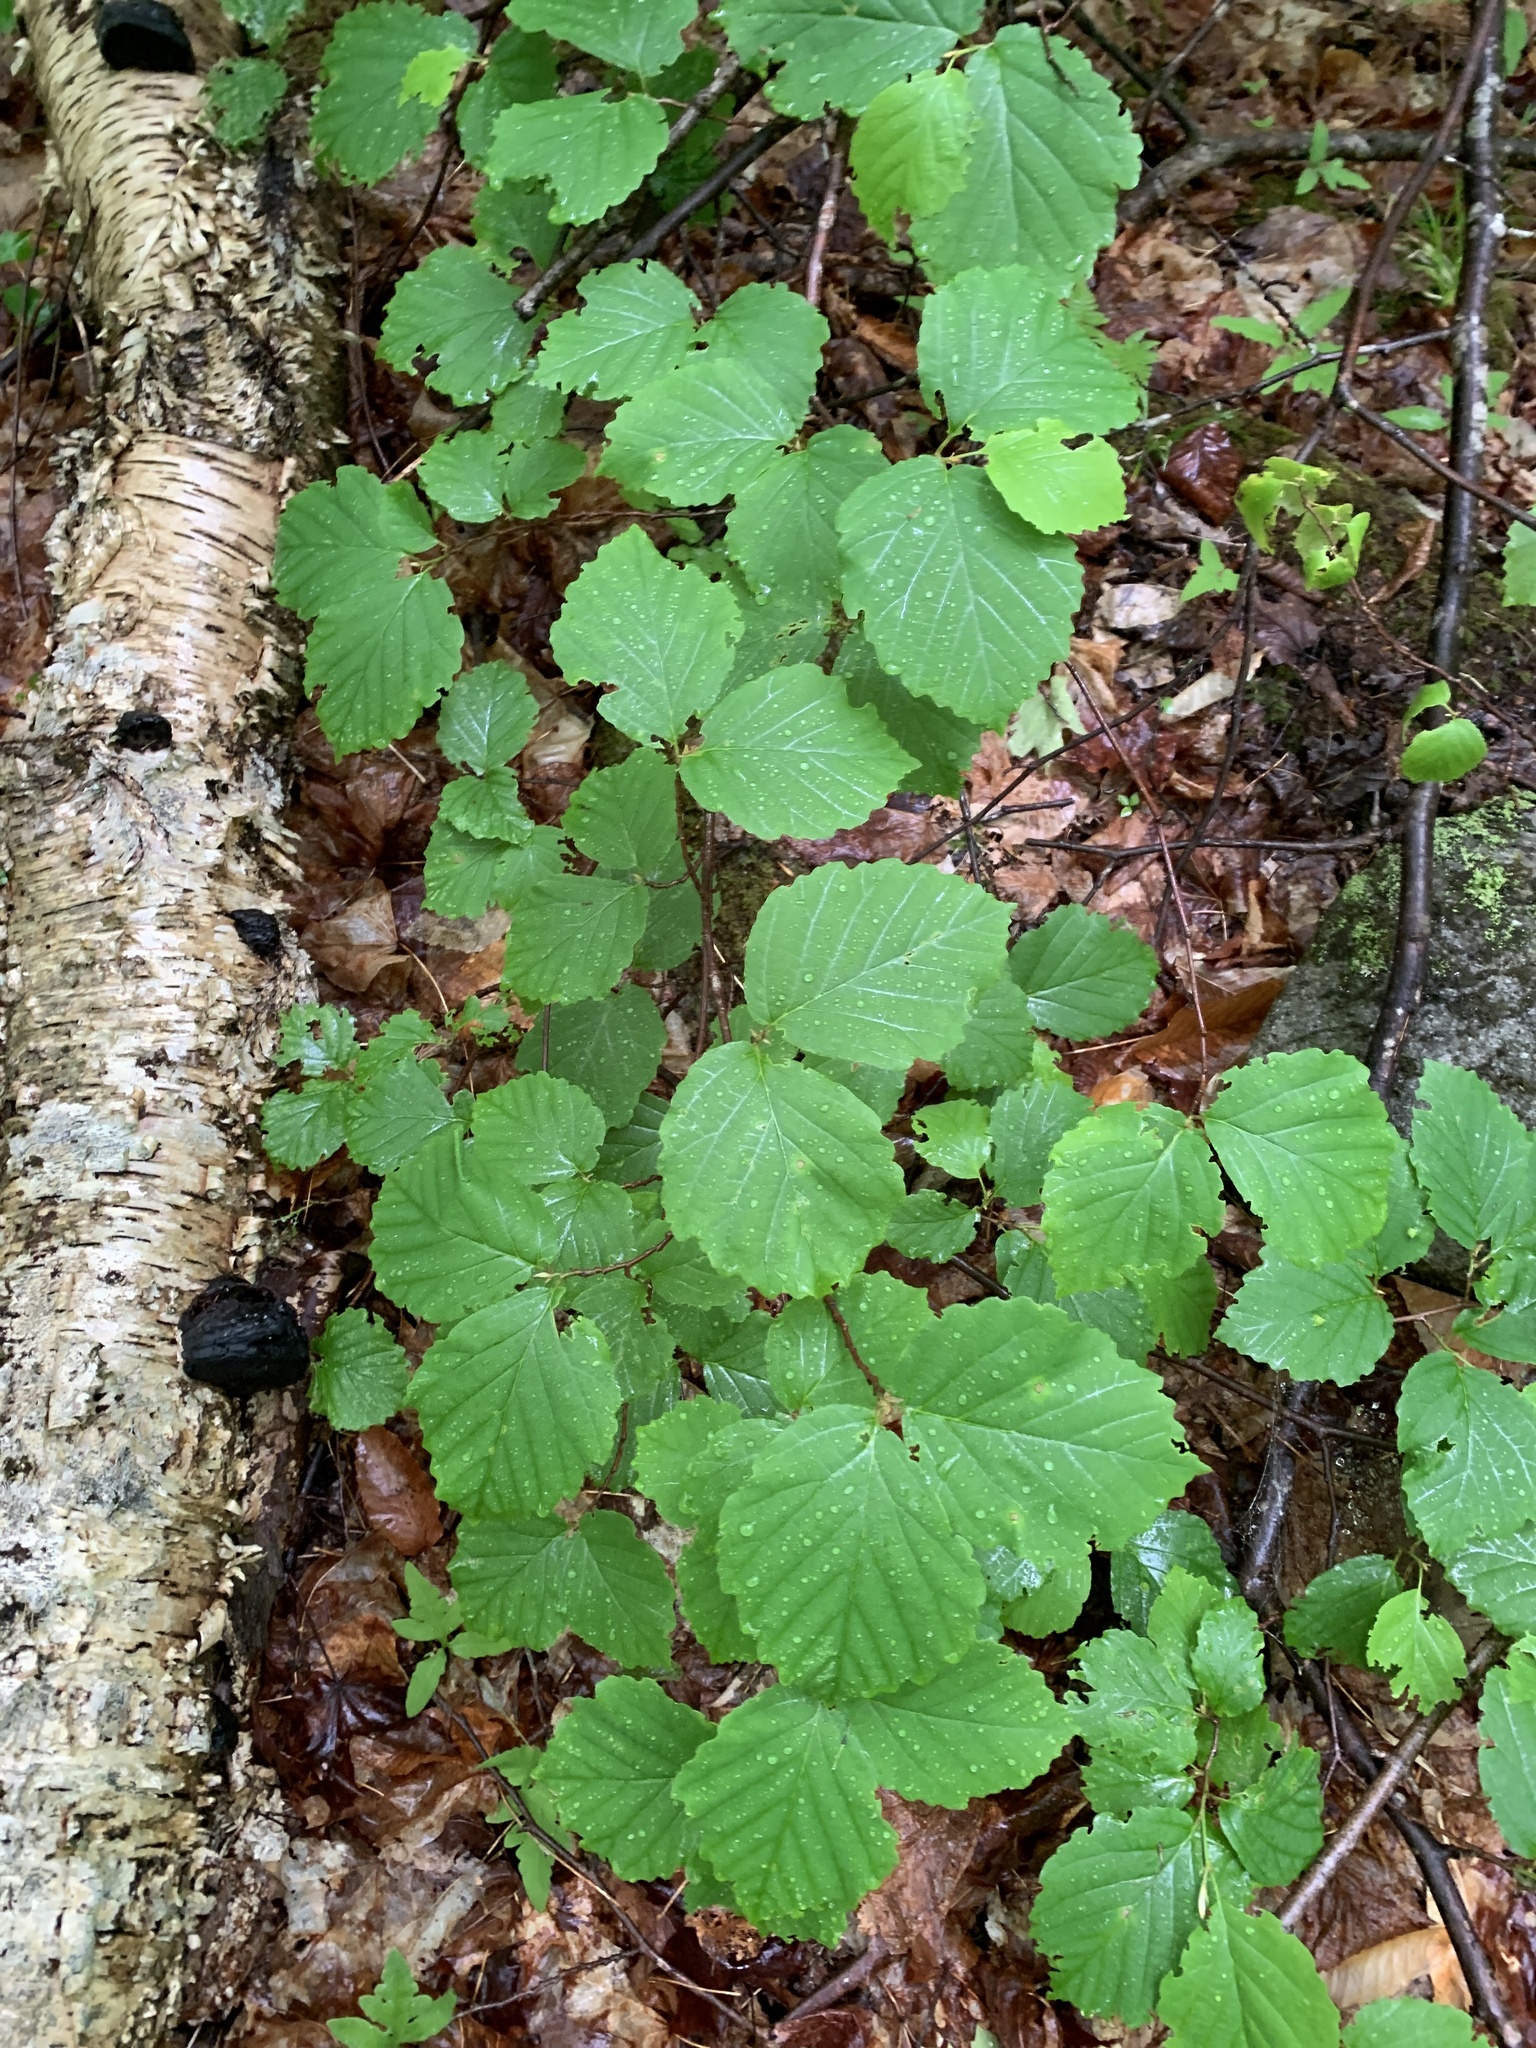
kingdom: Plantae
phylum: Tracheophyta
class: Magnoliopsida
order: Saxifragales
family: Hamamelidaceae
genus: Hamamelis
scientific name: Hamamelis virginiana
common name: Witch-hazel
